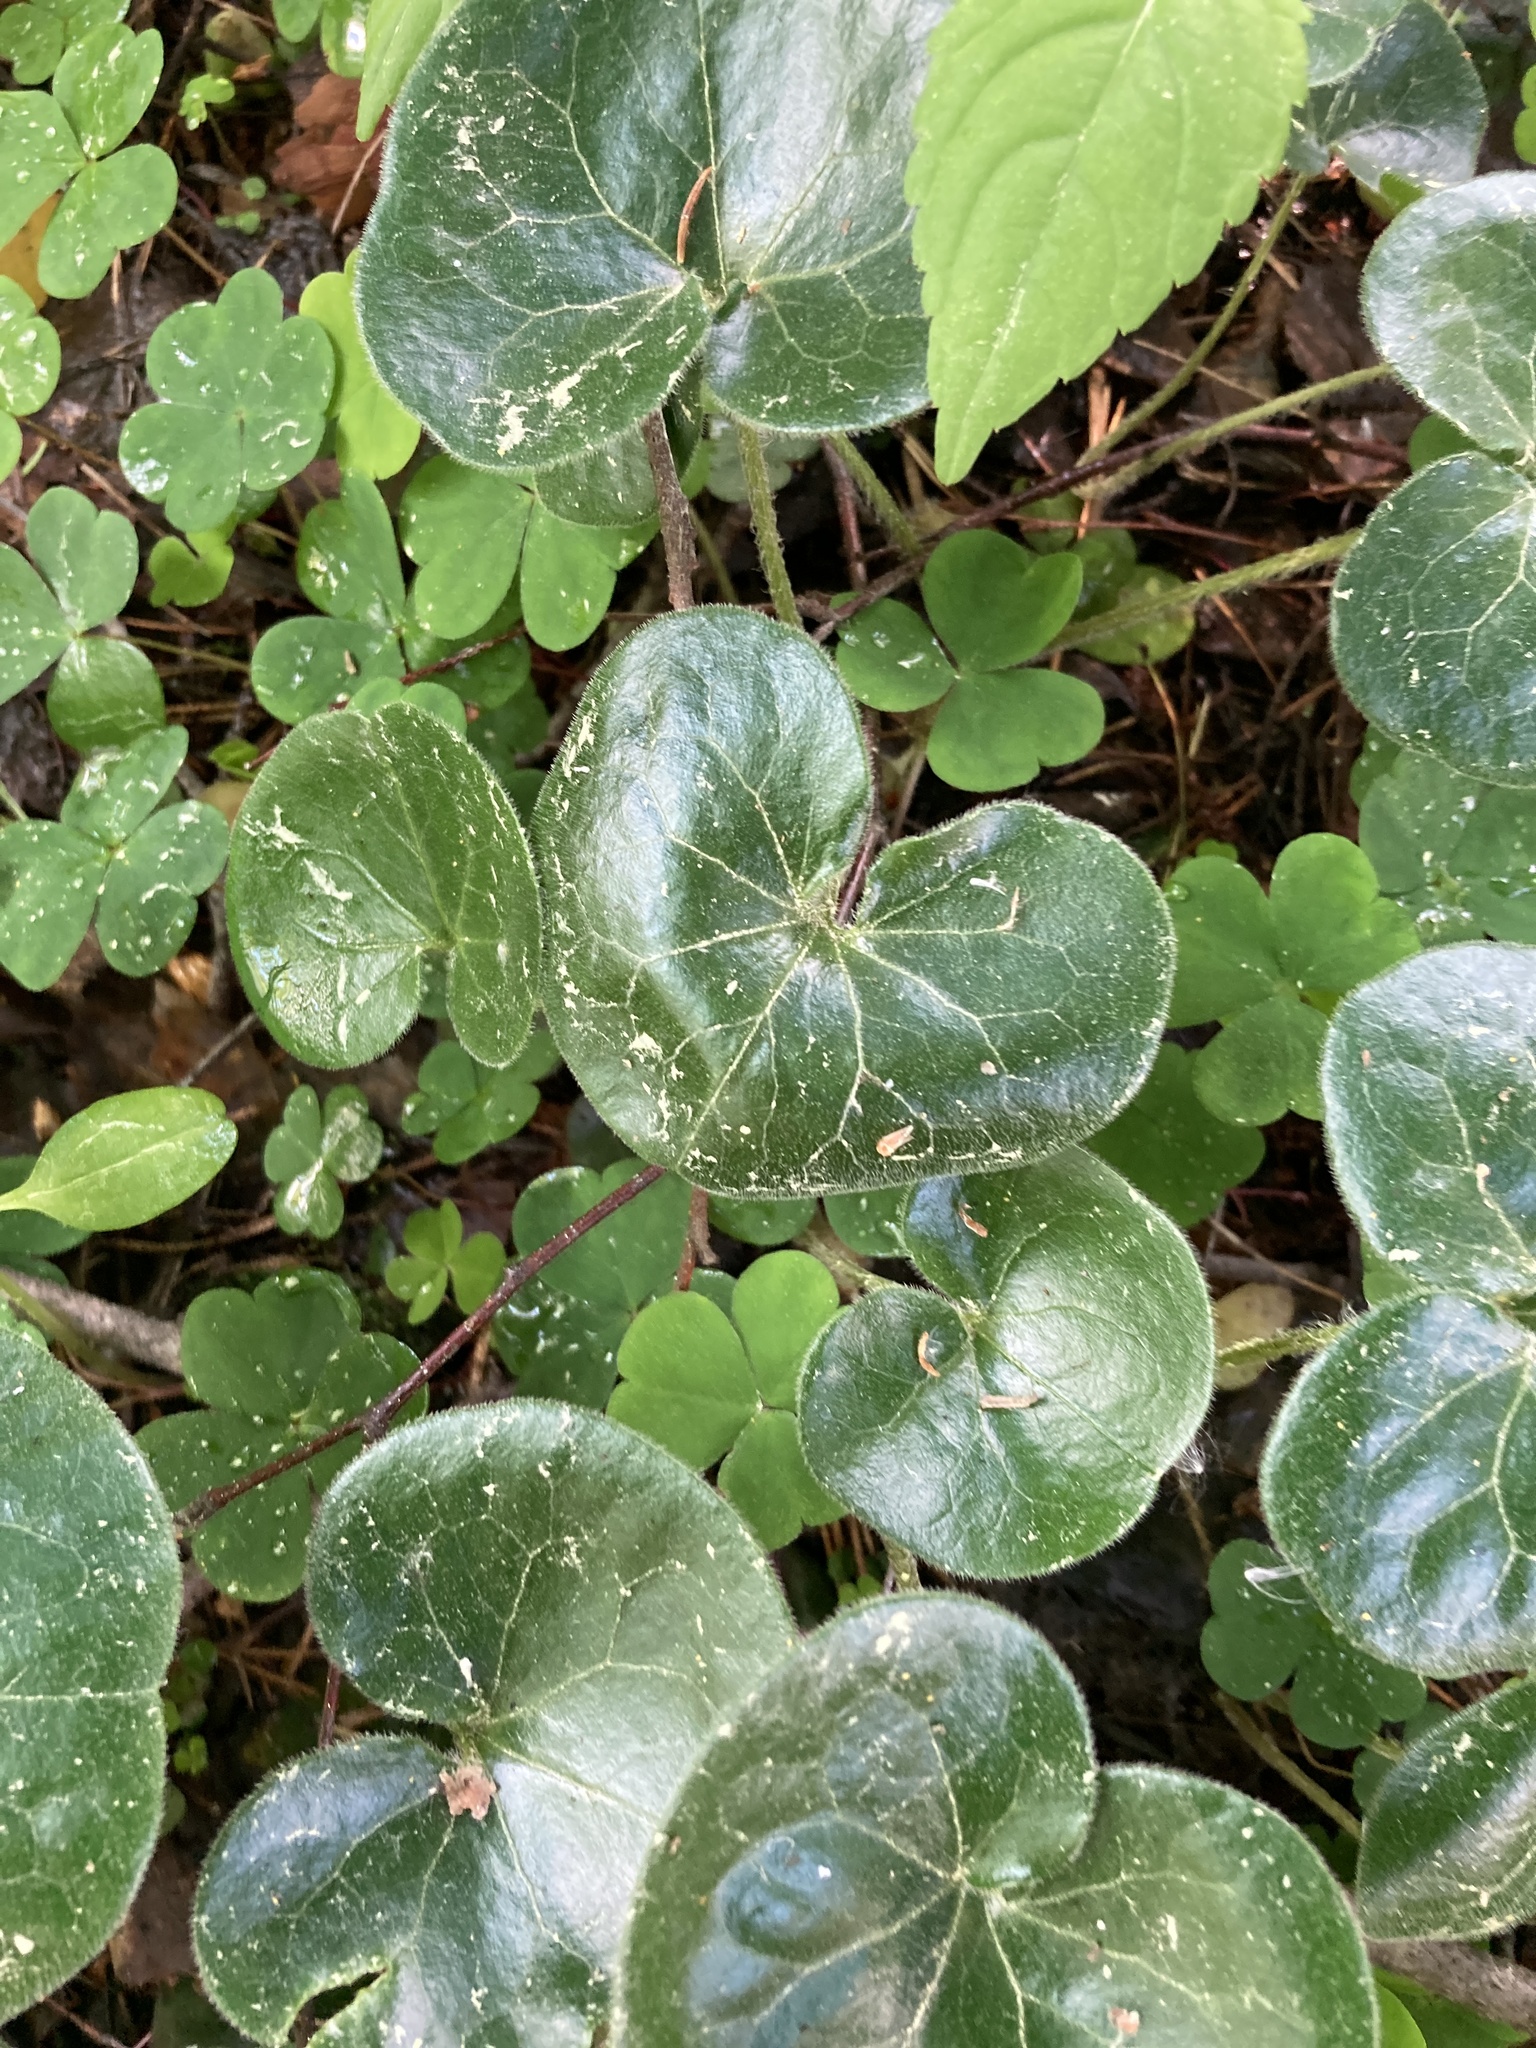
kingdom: Plantae
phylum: Tracheophyta
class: Magnoliopsida
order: Piperales
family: Aristolochiaceae
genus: Asarum
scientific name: Asarum europaeum
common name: Asarabacca
